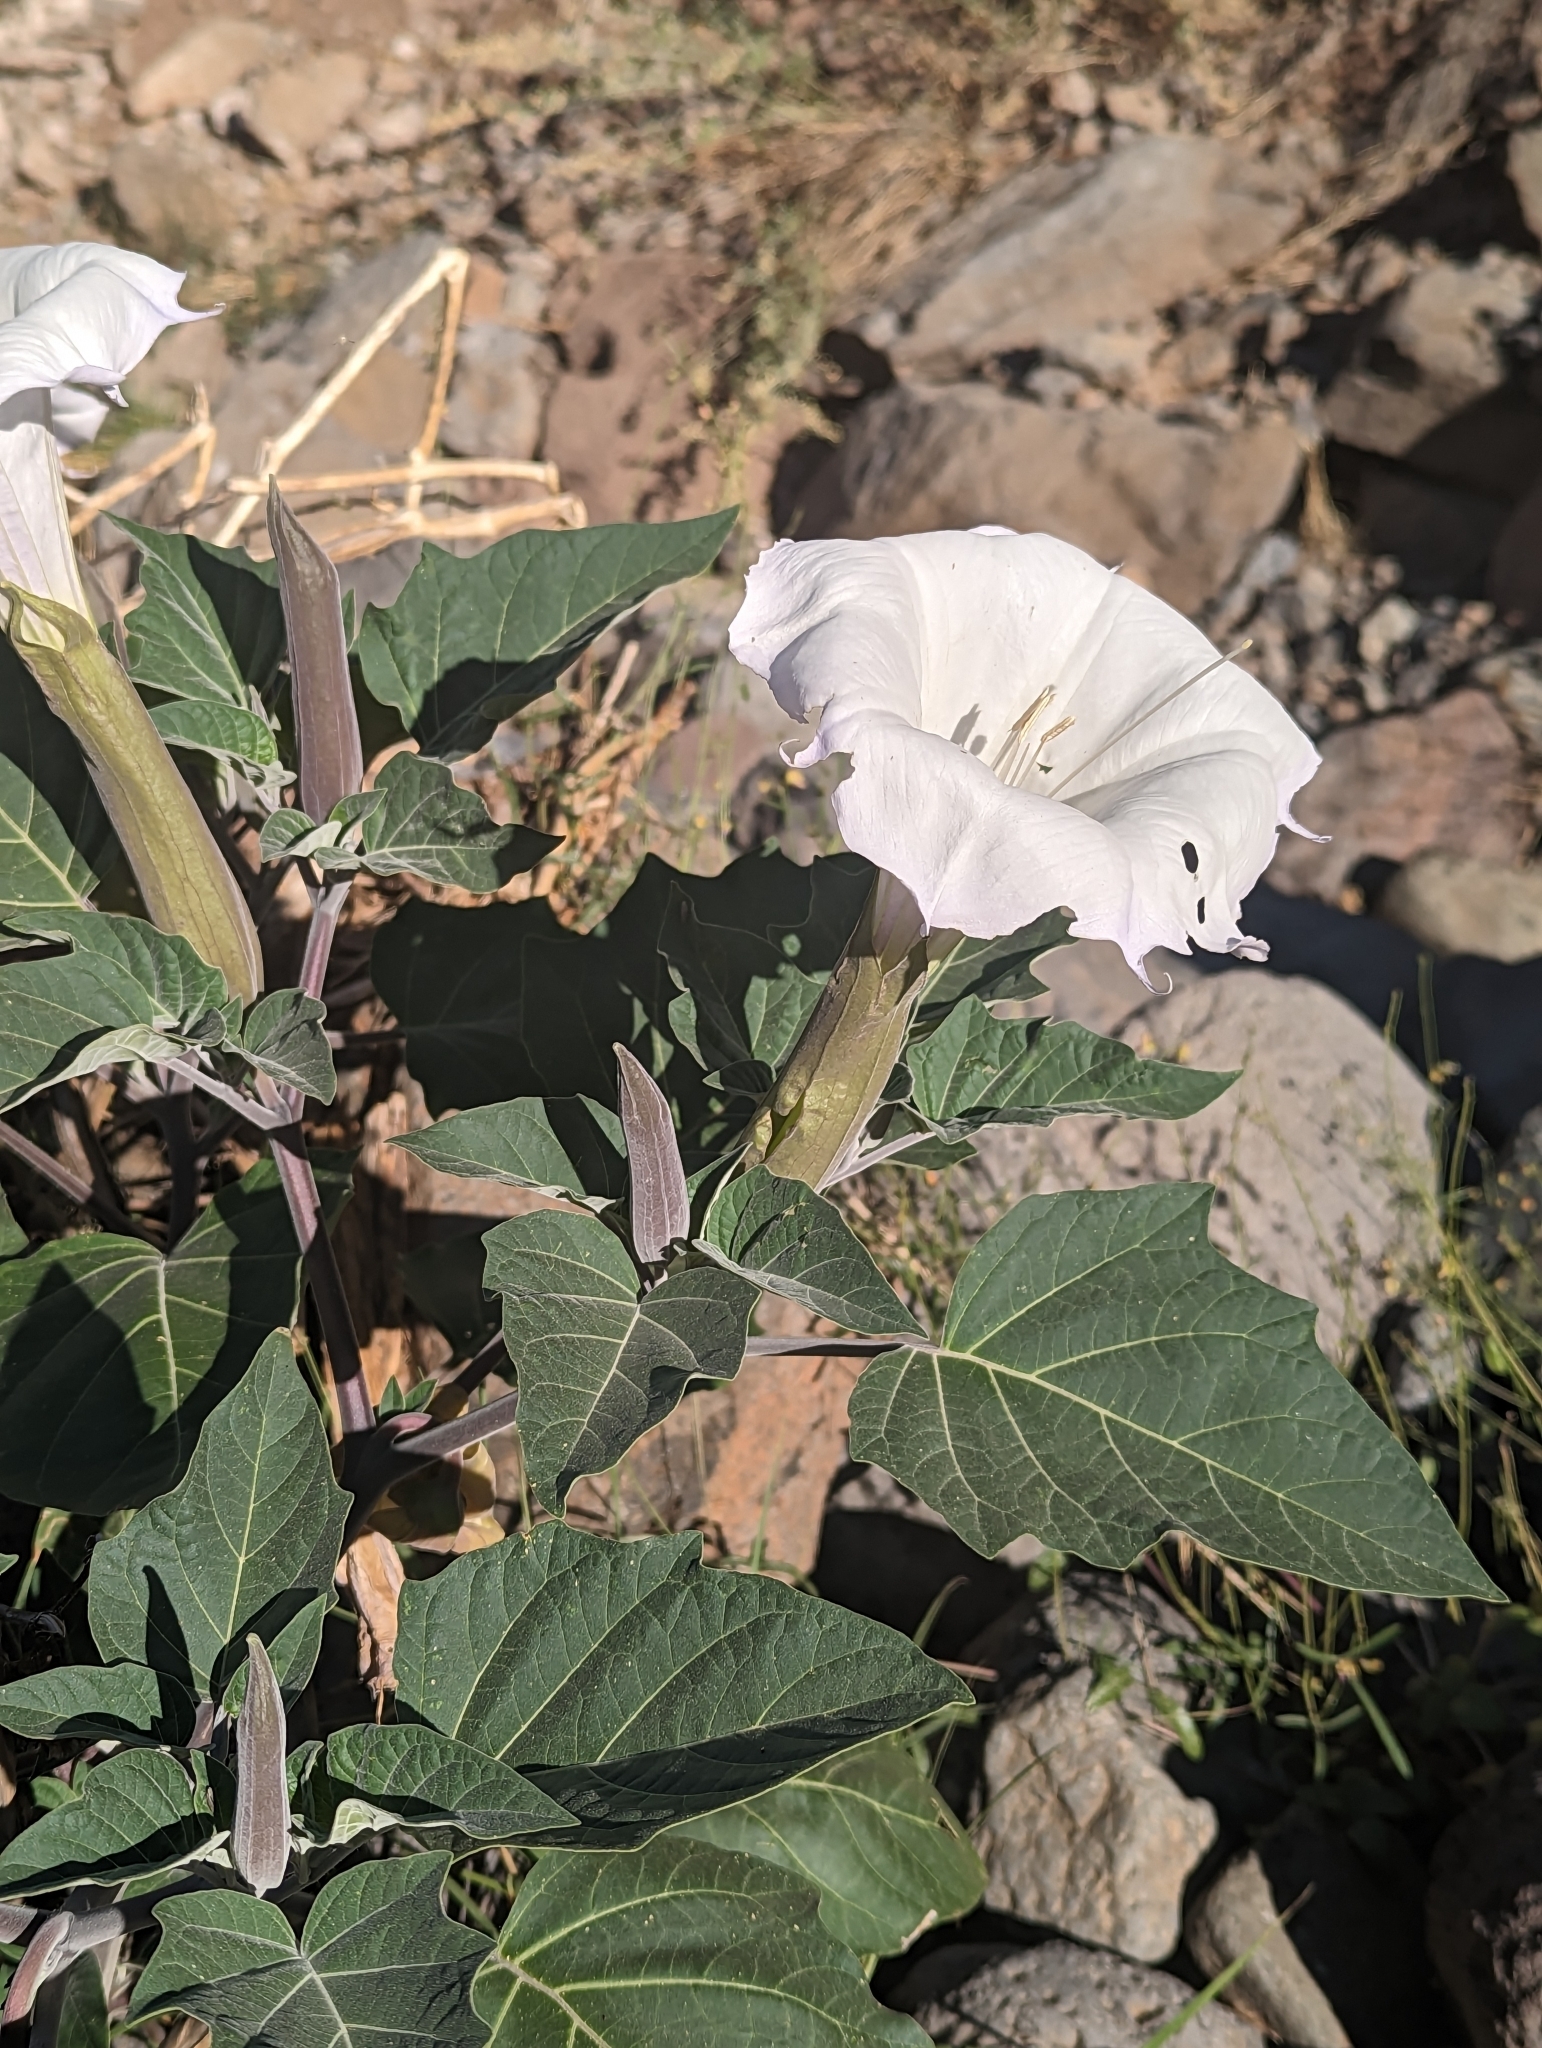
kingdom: Plantae
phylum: Tracheophyta
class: Magnoliopsida
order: Solanales
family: Solanaceae
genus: Datura
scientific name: Datura wrightii
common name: Sacred thorn-apple
